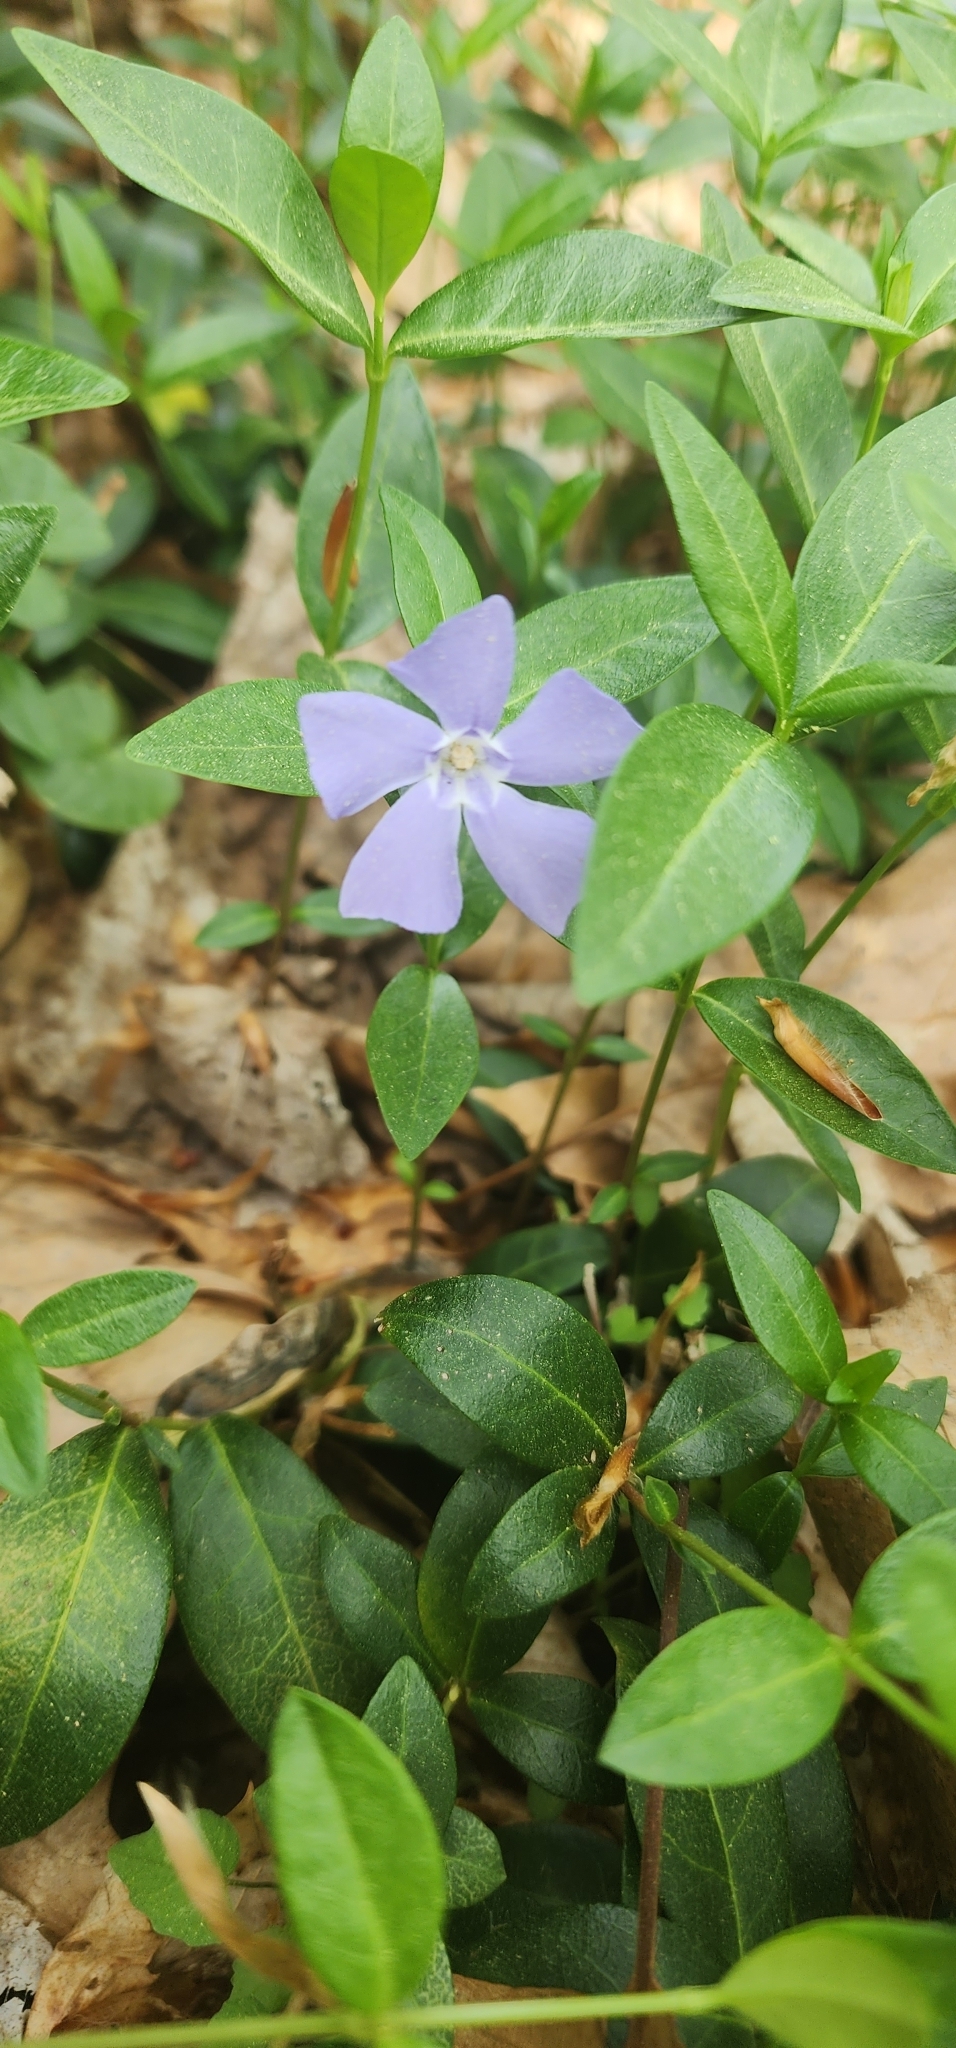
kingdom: Plantae
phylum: Tracheophyta
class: Magnoliopsida
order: Gentianales
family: Apocynaceae
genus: Vinca
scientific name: Vinca minor
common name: Lesser periwinkle
